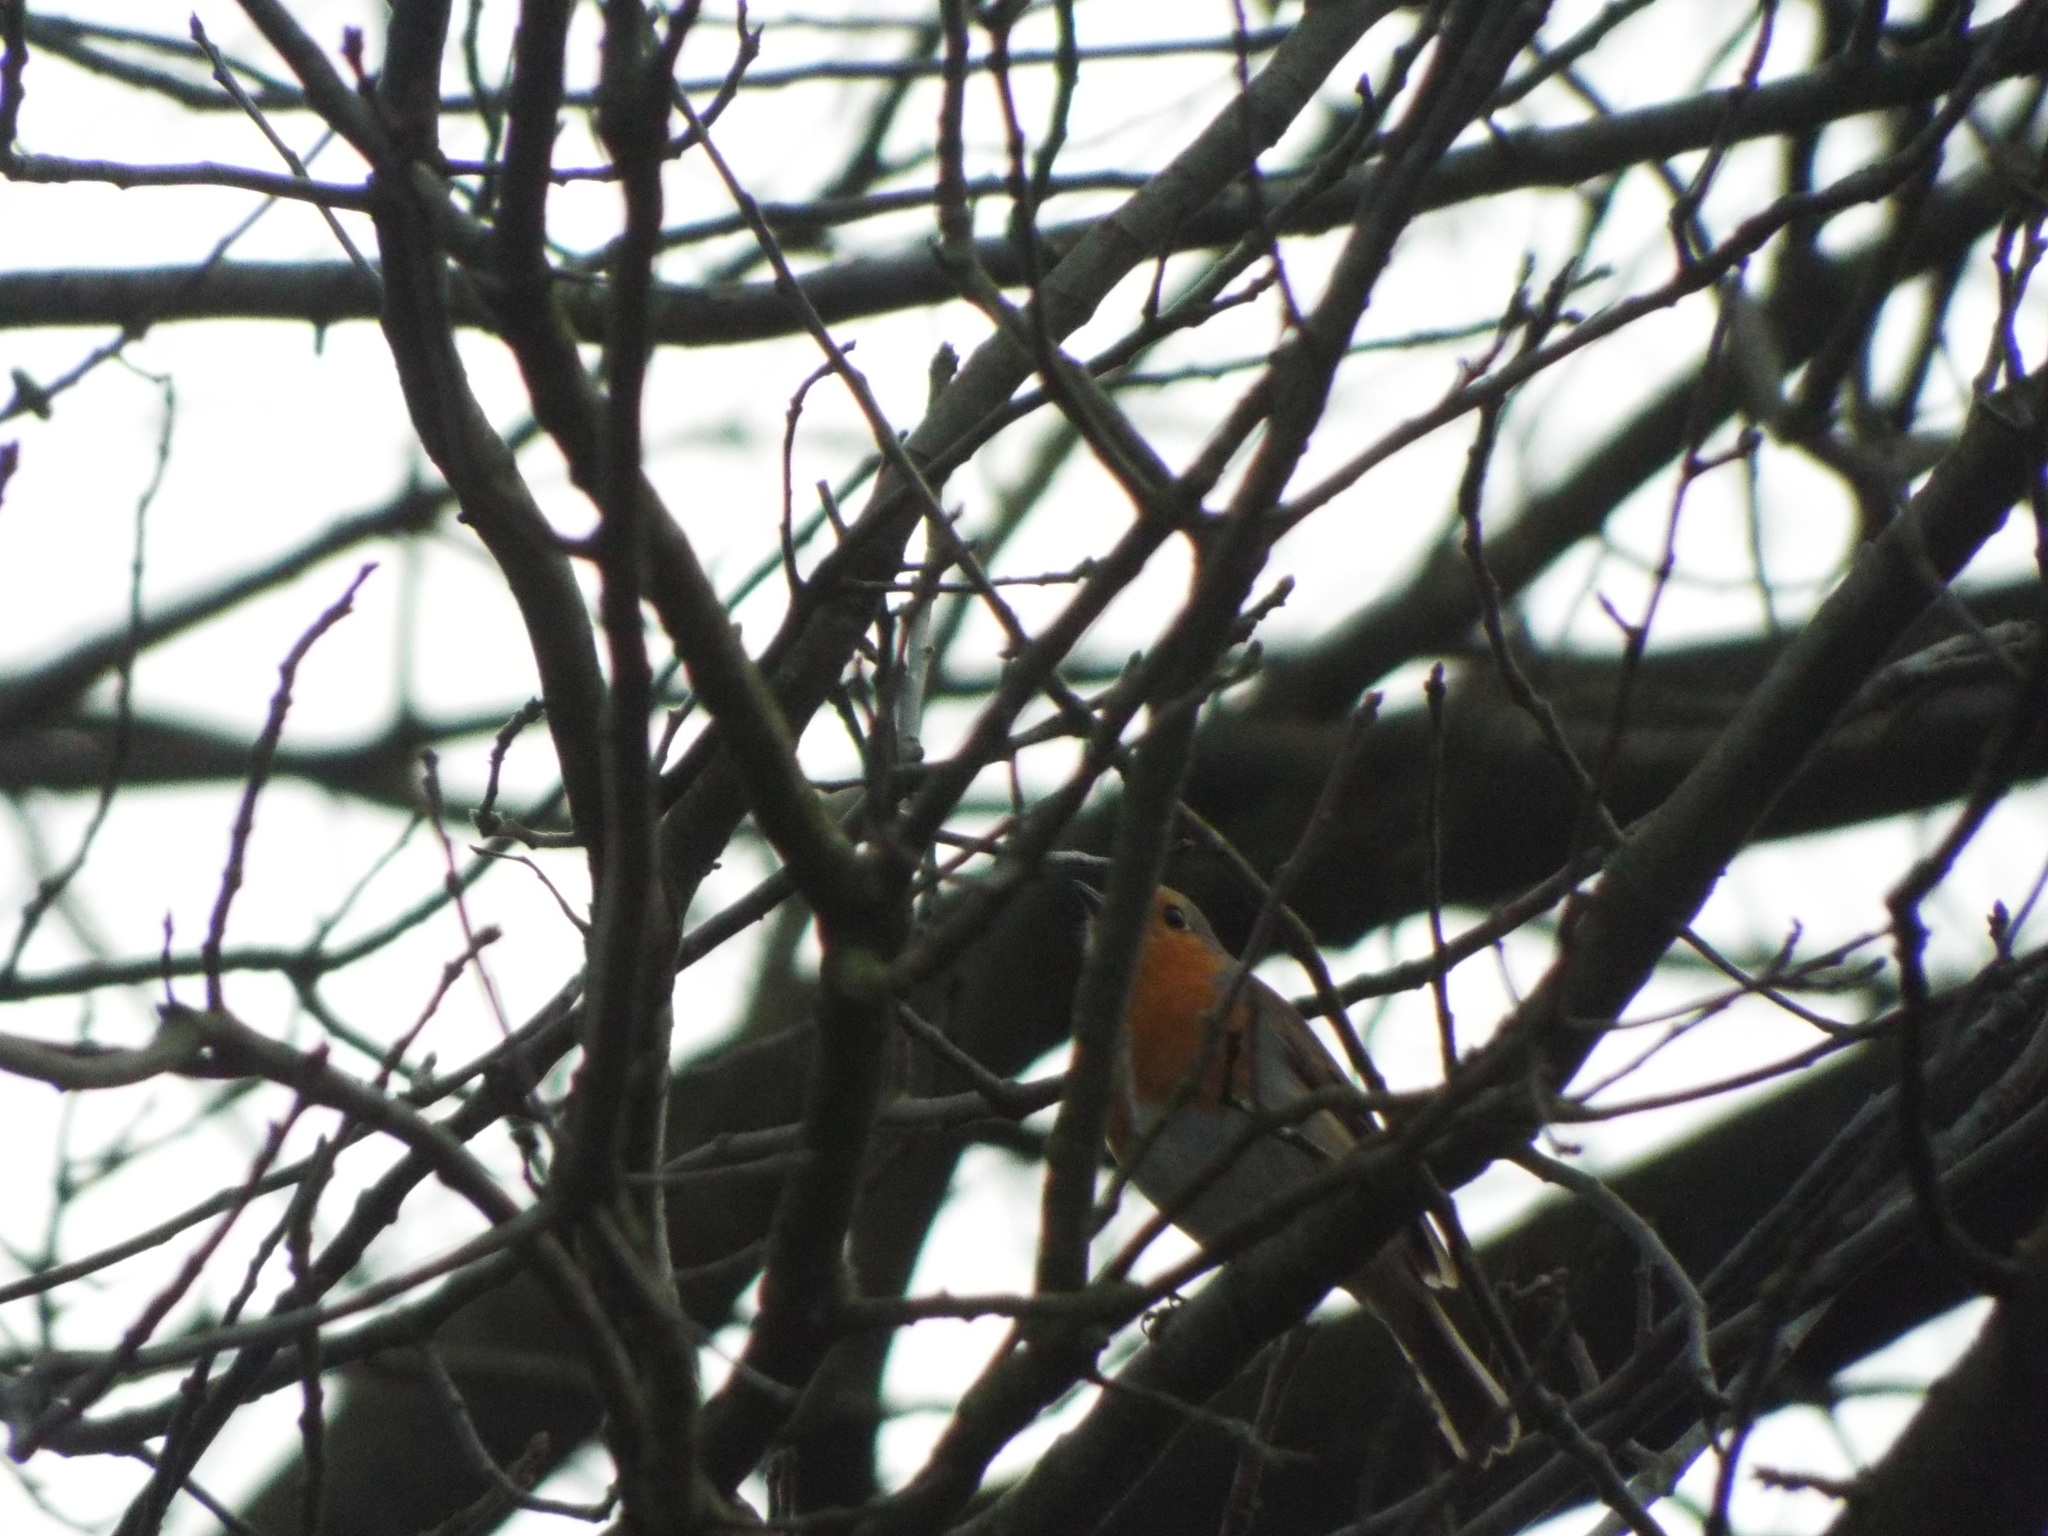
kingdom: Animalia
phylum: Chordata
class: Aves
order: Passeriformes
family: Muscicapidae
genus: Erithacus
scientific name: Erithacus rubecula
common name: European robin
